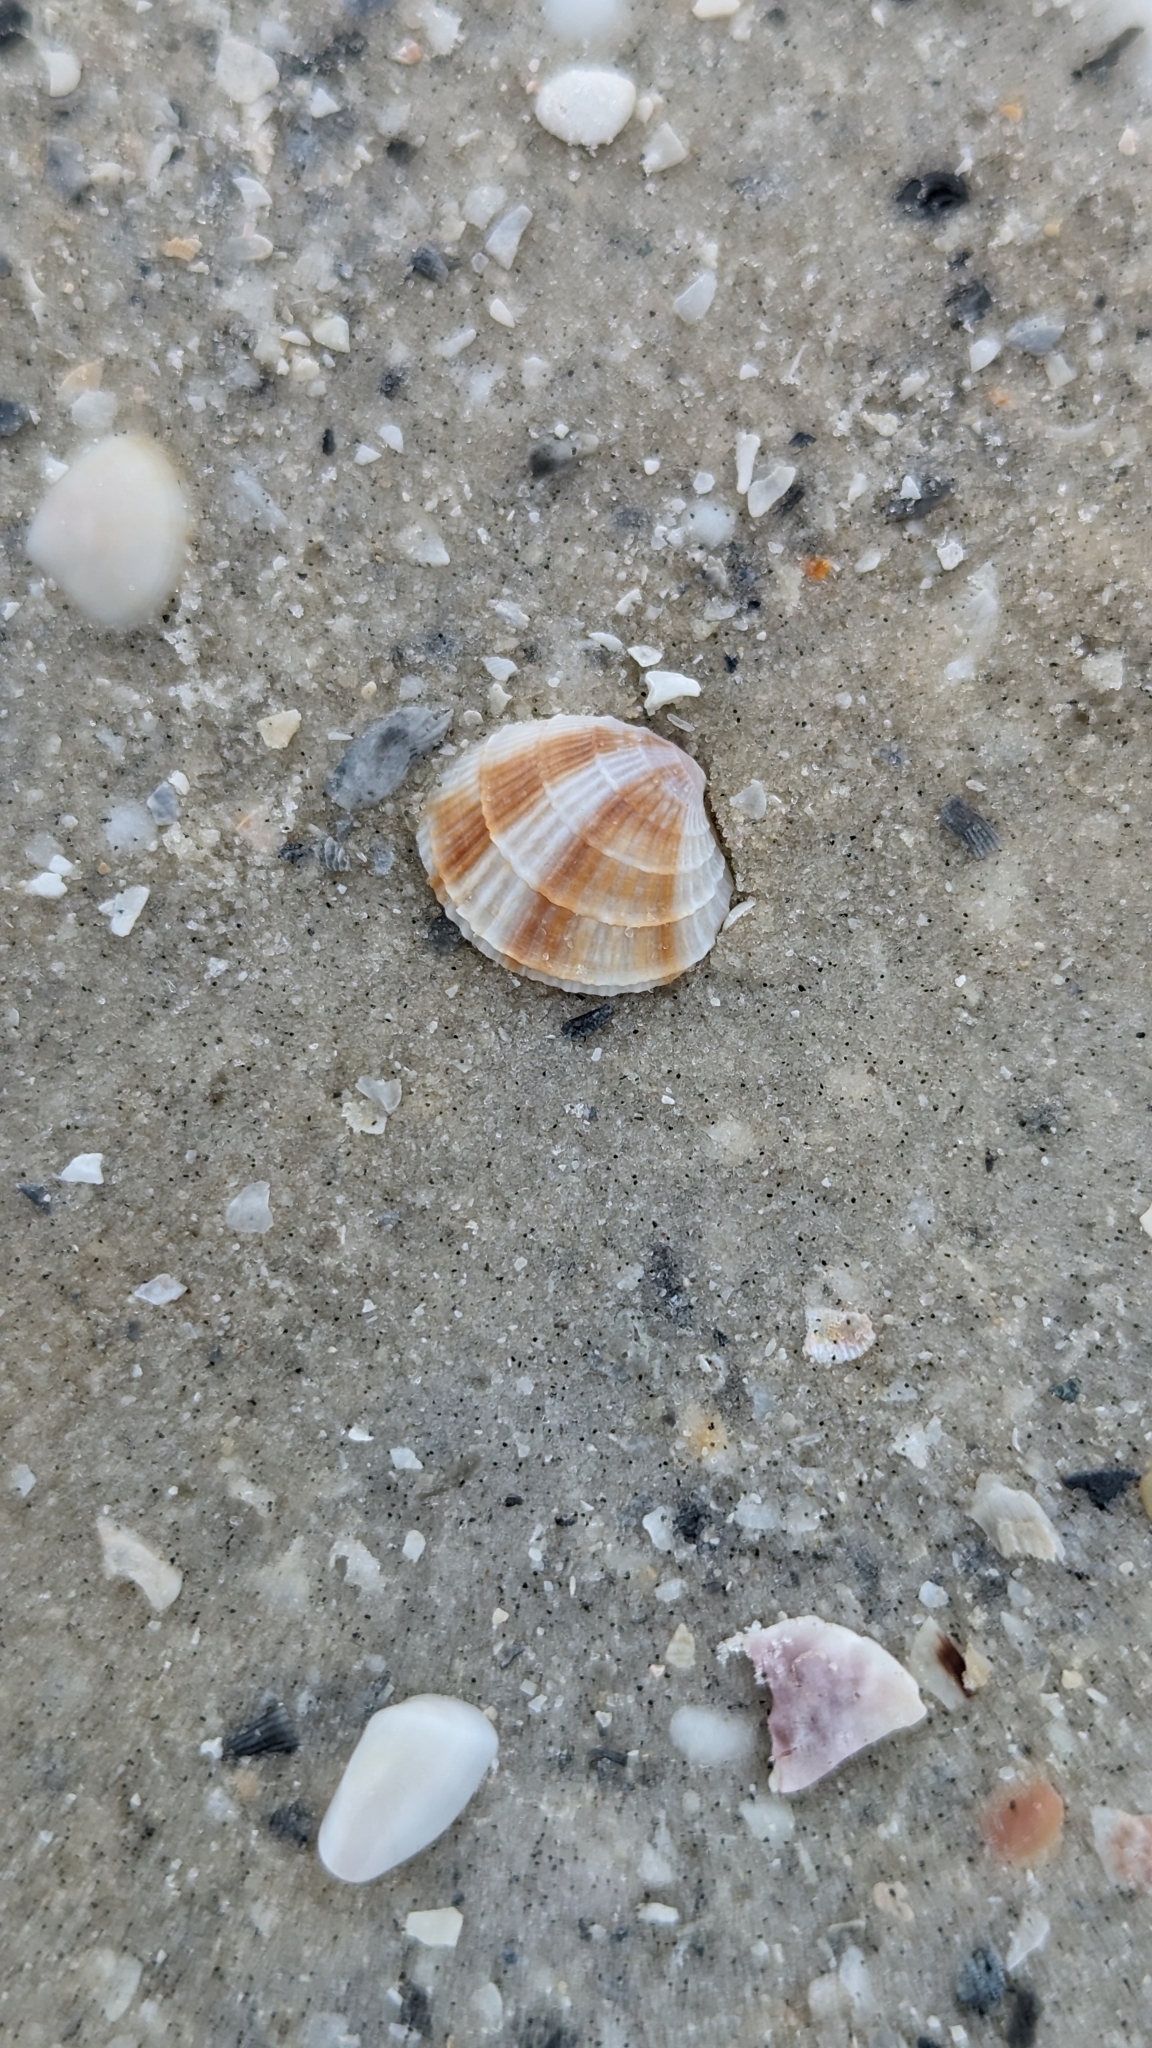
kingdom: Animalia
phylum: Mollusca
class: Bivalvia
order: Venerida
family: Veneridae
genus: Chione
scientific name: Chione elevata
